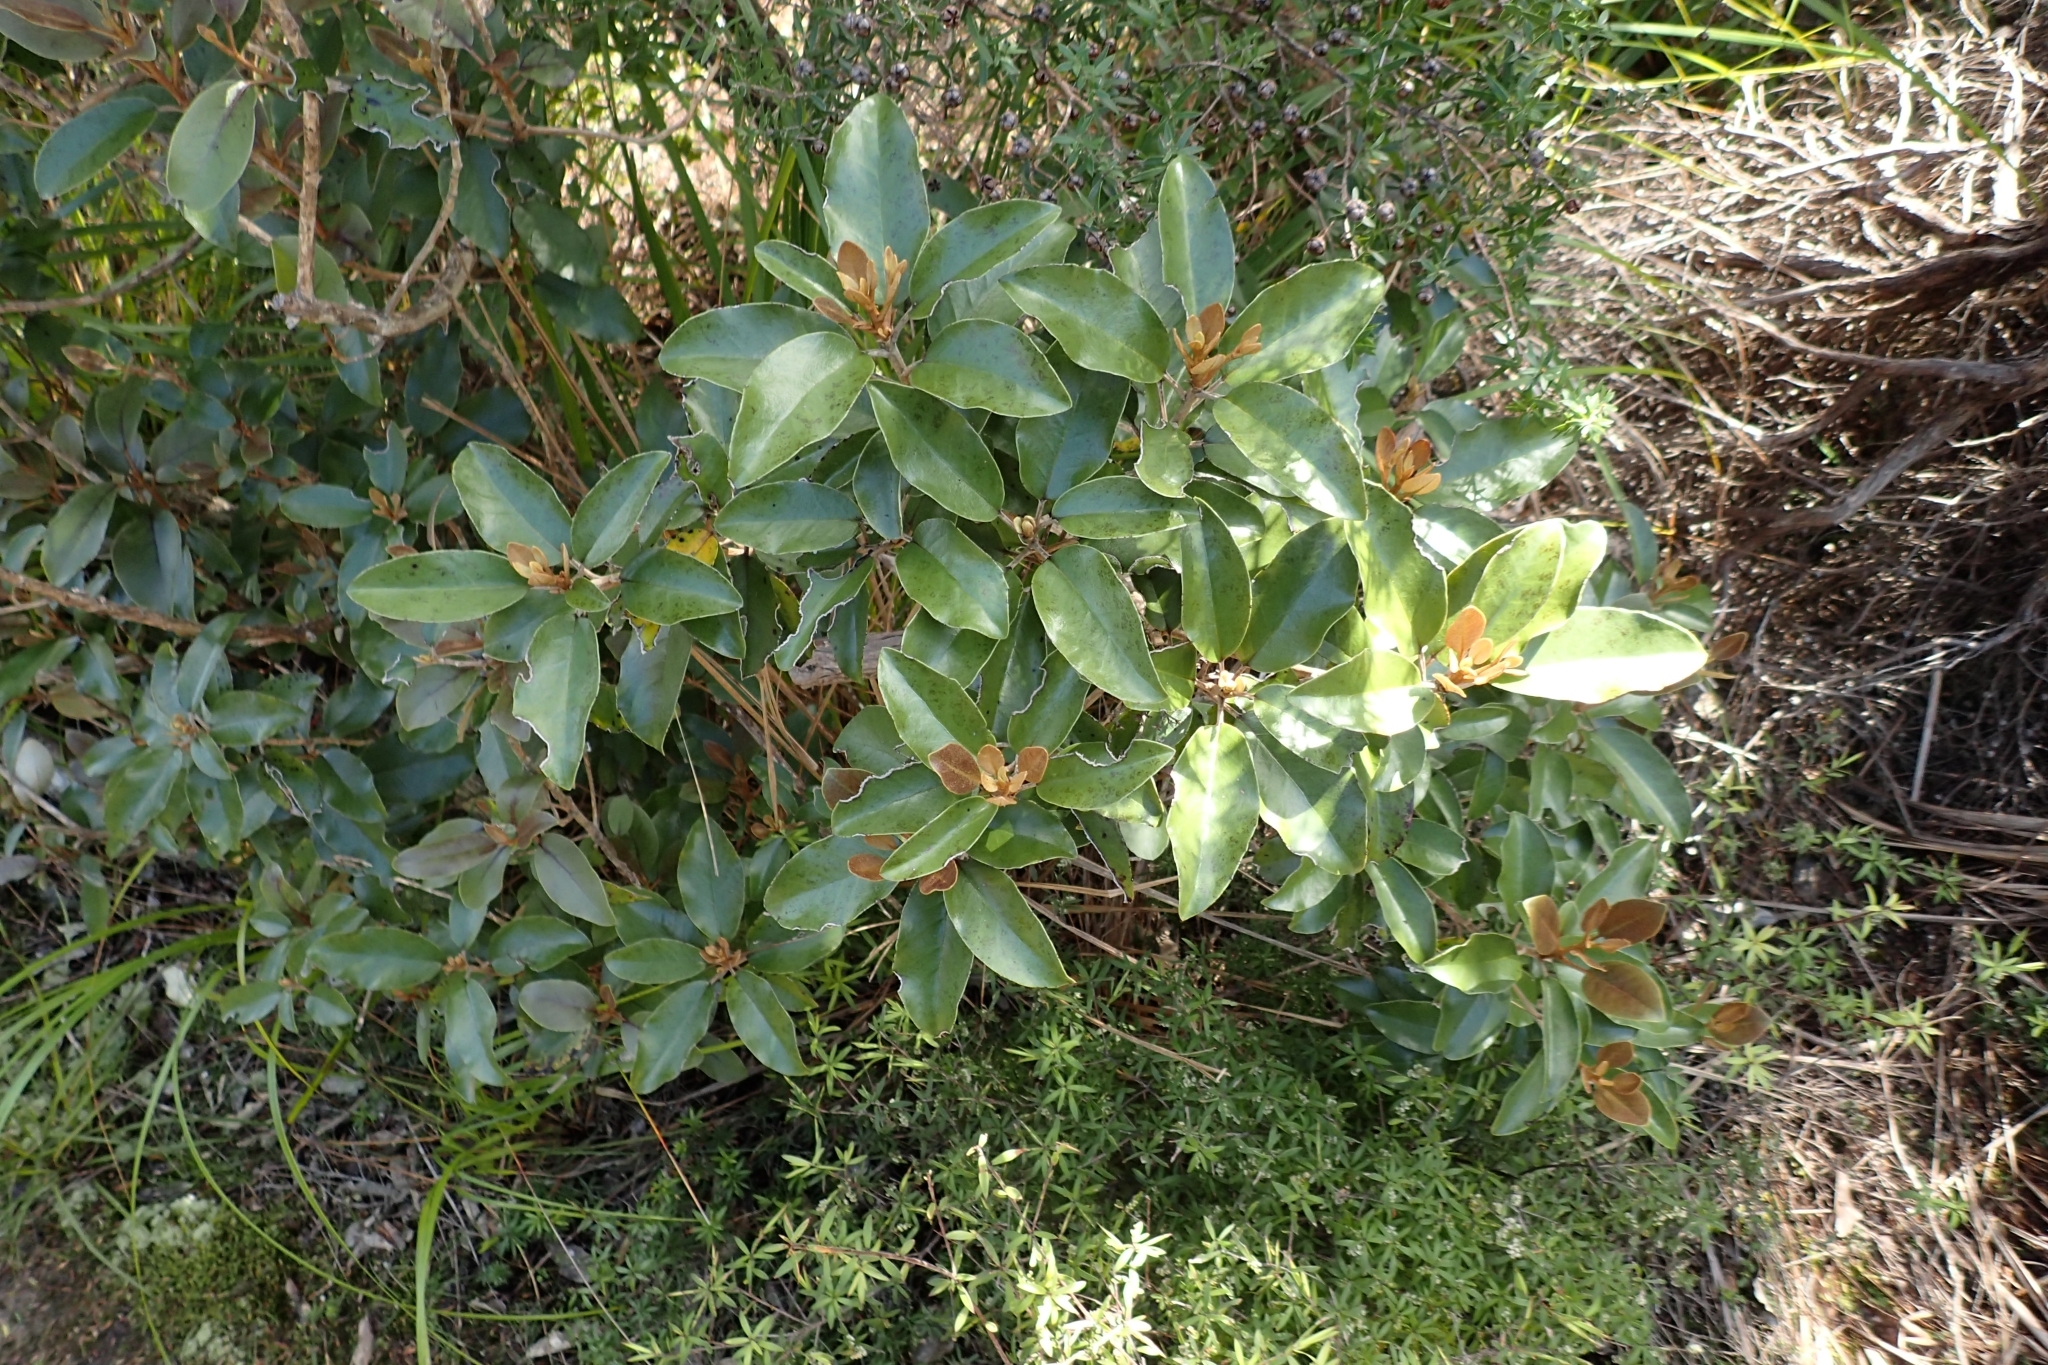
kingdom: Plantae
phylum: Tracheophyta
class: Magnoliopsida
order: Asterales
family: Asteraceae
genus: Olearia
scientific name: Olearia furfuracea
